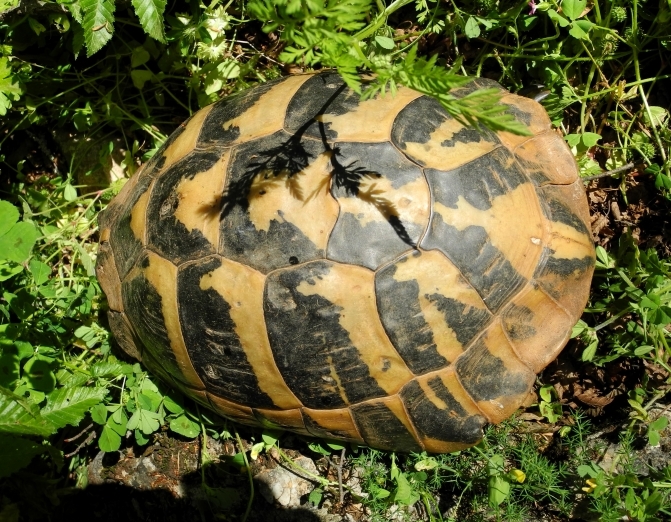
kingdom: Animalia
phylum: Chordata
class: Testudines
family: Testudinidae
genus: Testudo
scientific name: Testudo hermanni
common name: Hermann's tortoise
